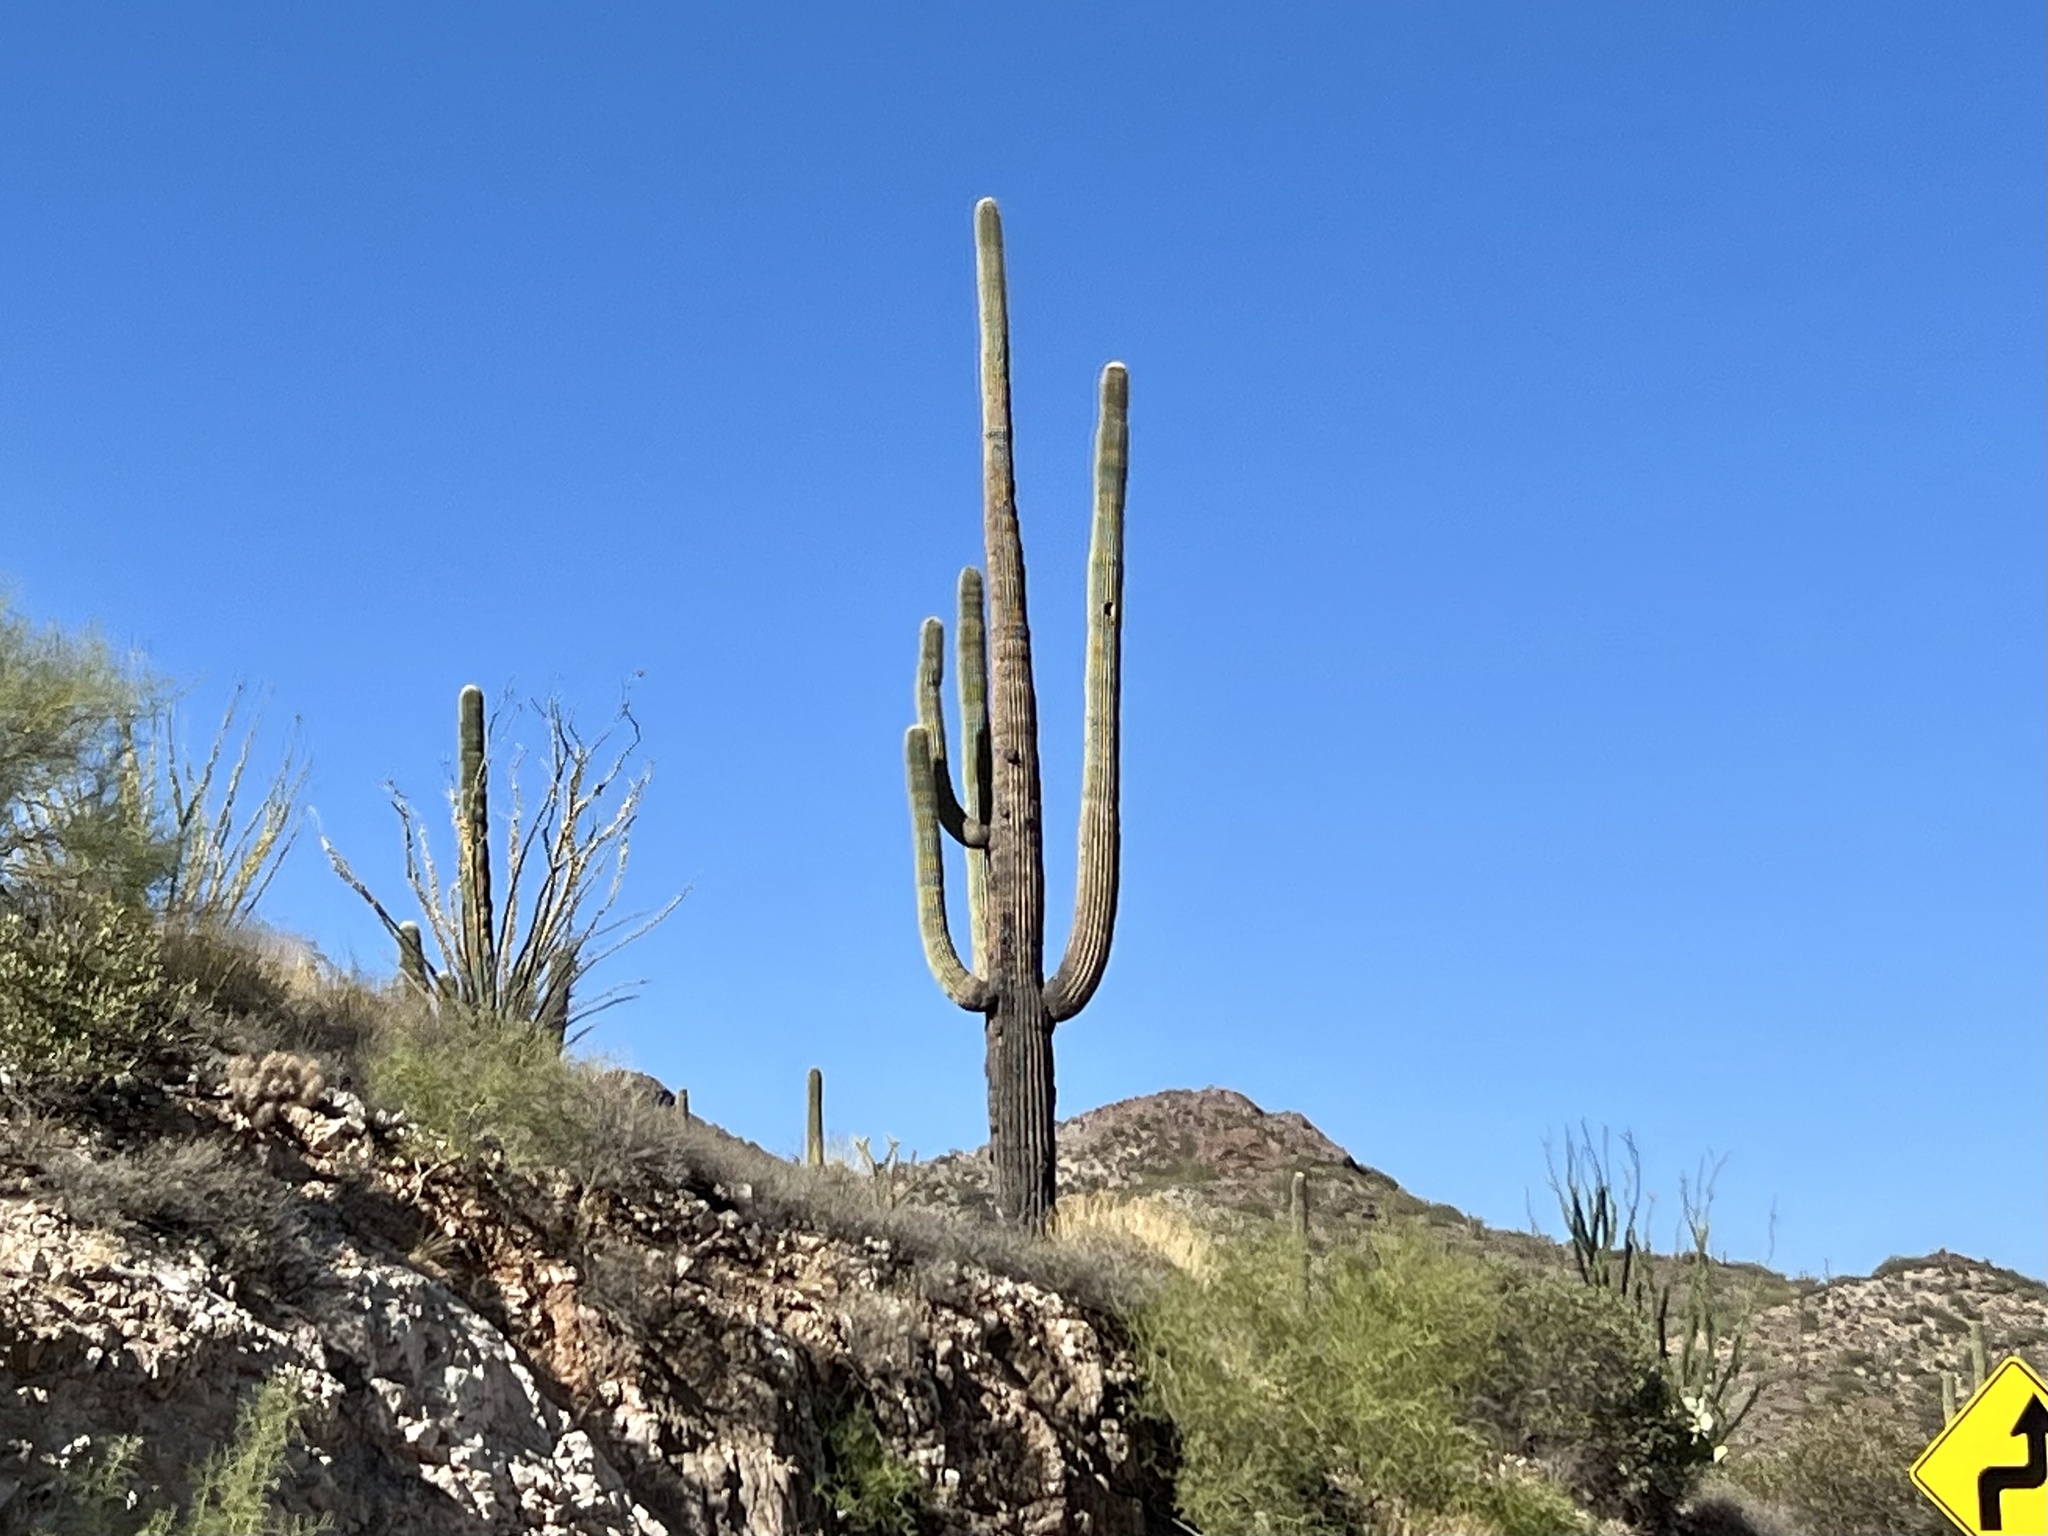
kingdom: Plantae
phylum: Tracheophyta
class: Magnoliopsida
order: Caryophyllales
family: Cactaceae
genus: Carnegiea
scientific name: Carnegiea gigantea
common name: Saguaro
